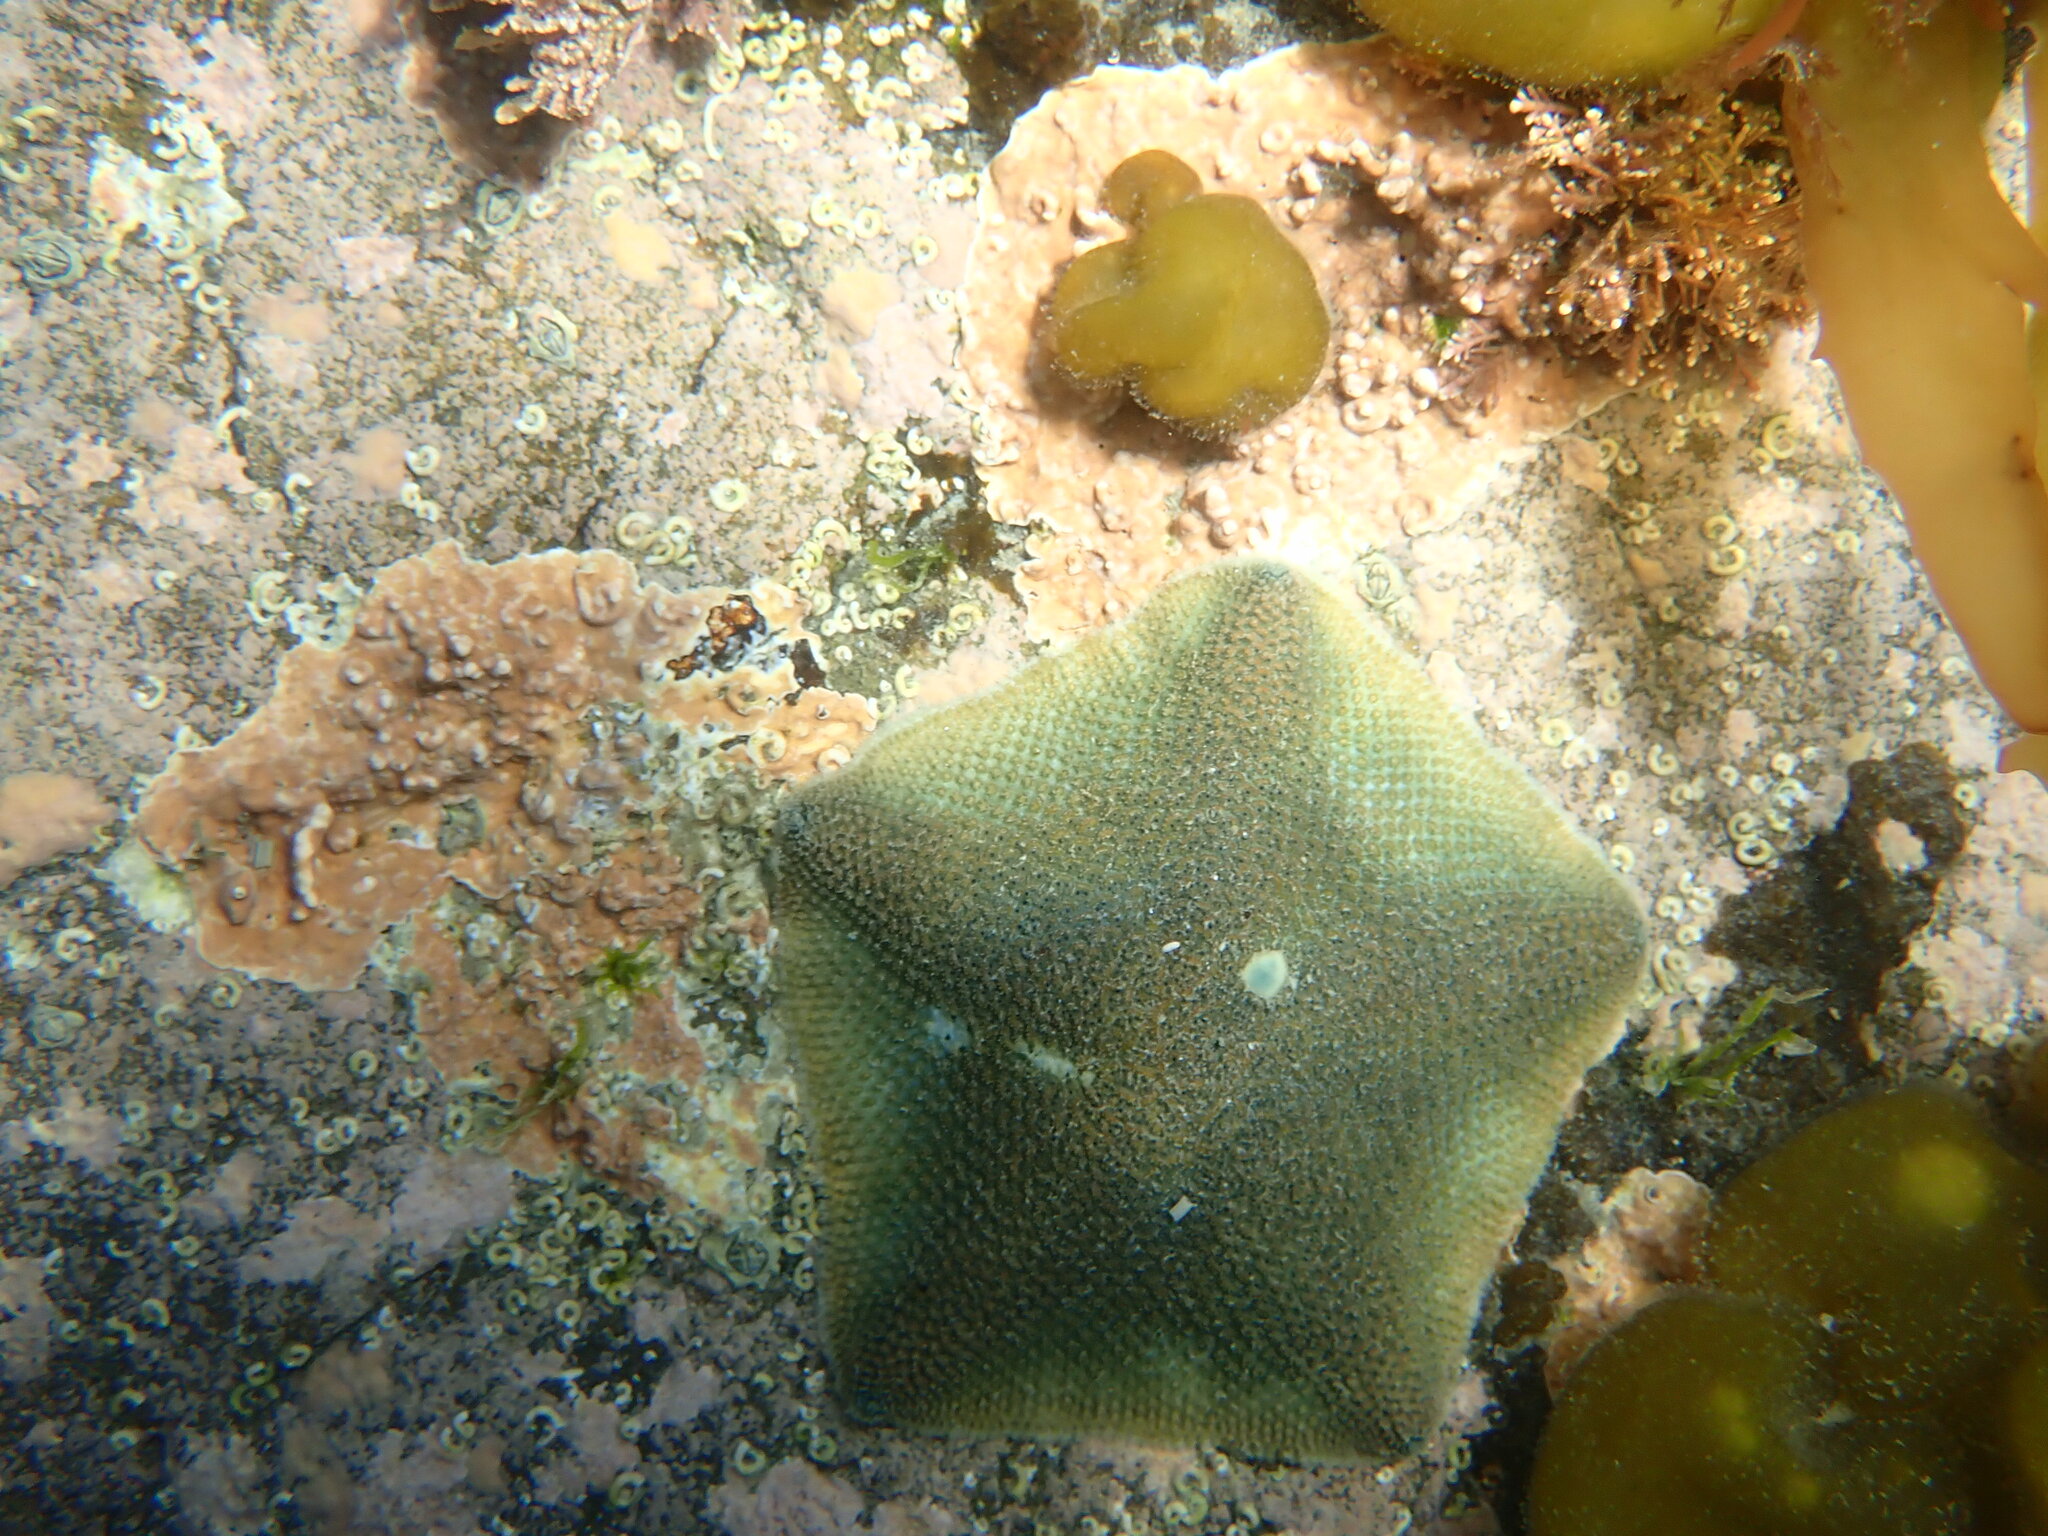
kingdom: Animalia
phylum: Echinodermata
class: Asteroidea
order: Valvatida
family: Asterinidae
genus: Patiriella
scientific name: Patiriella regularis
